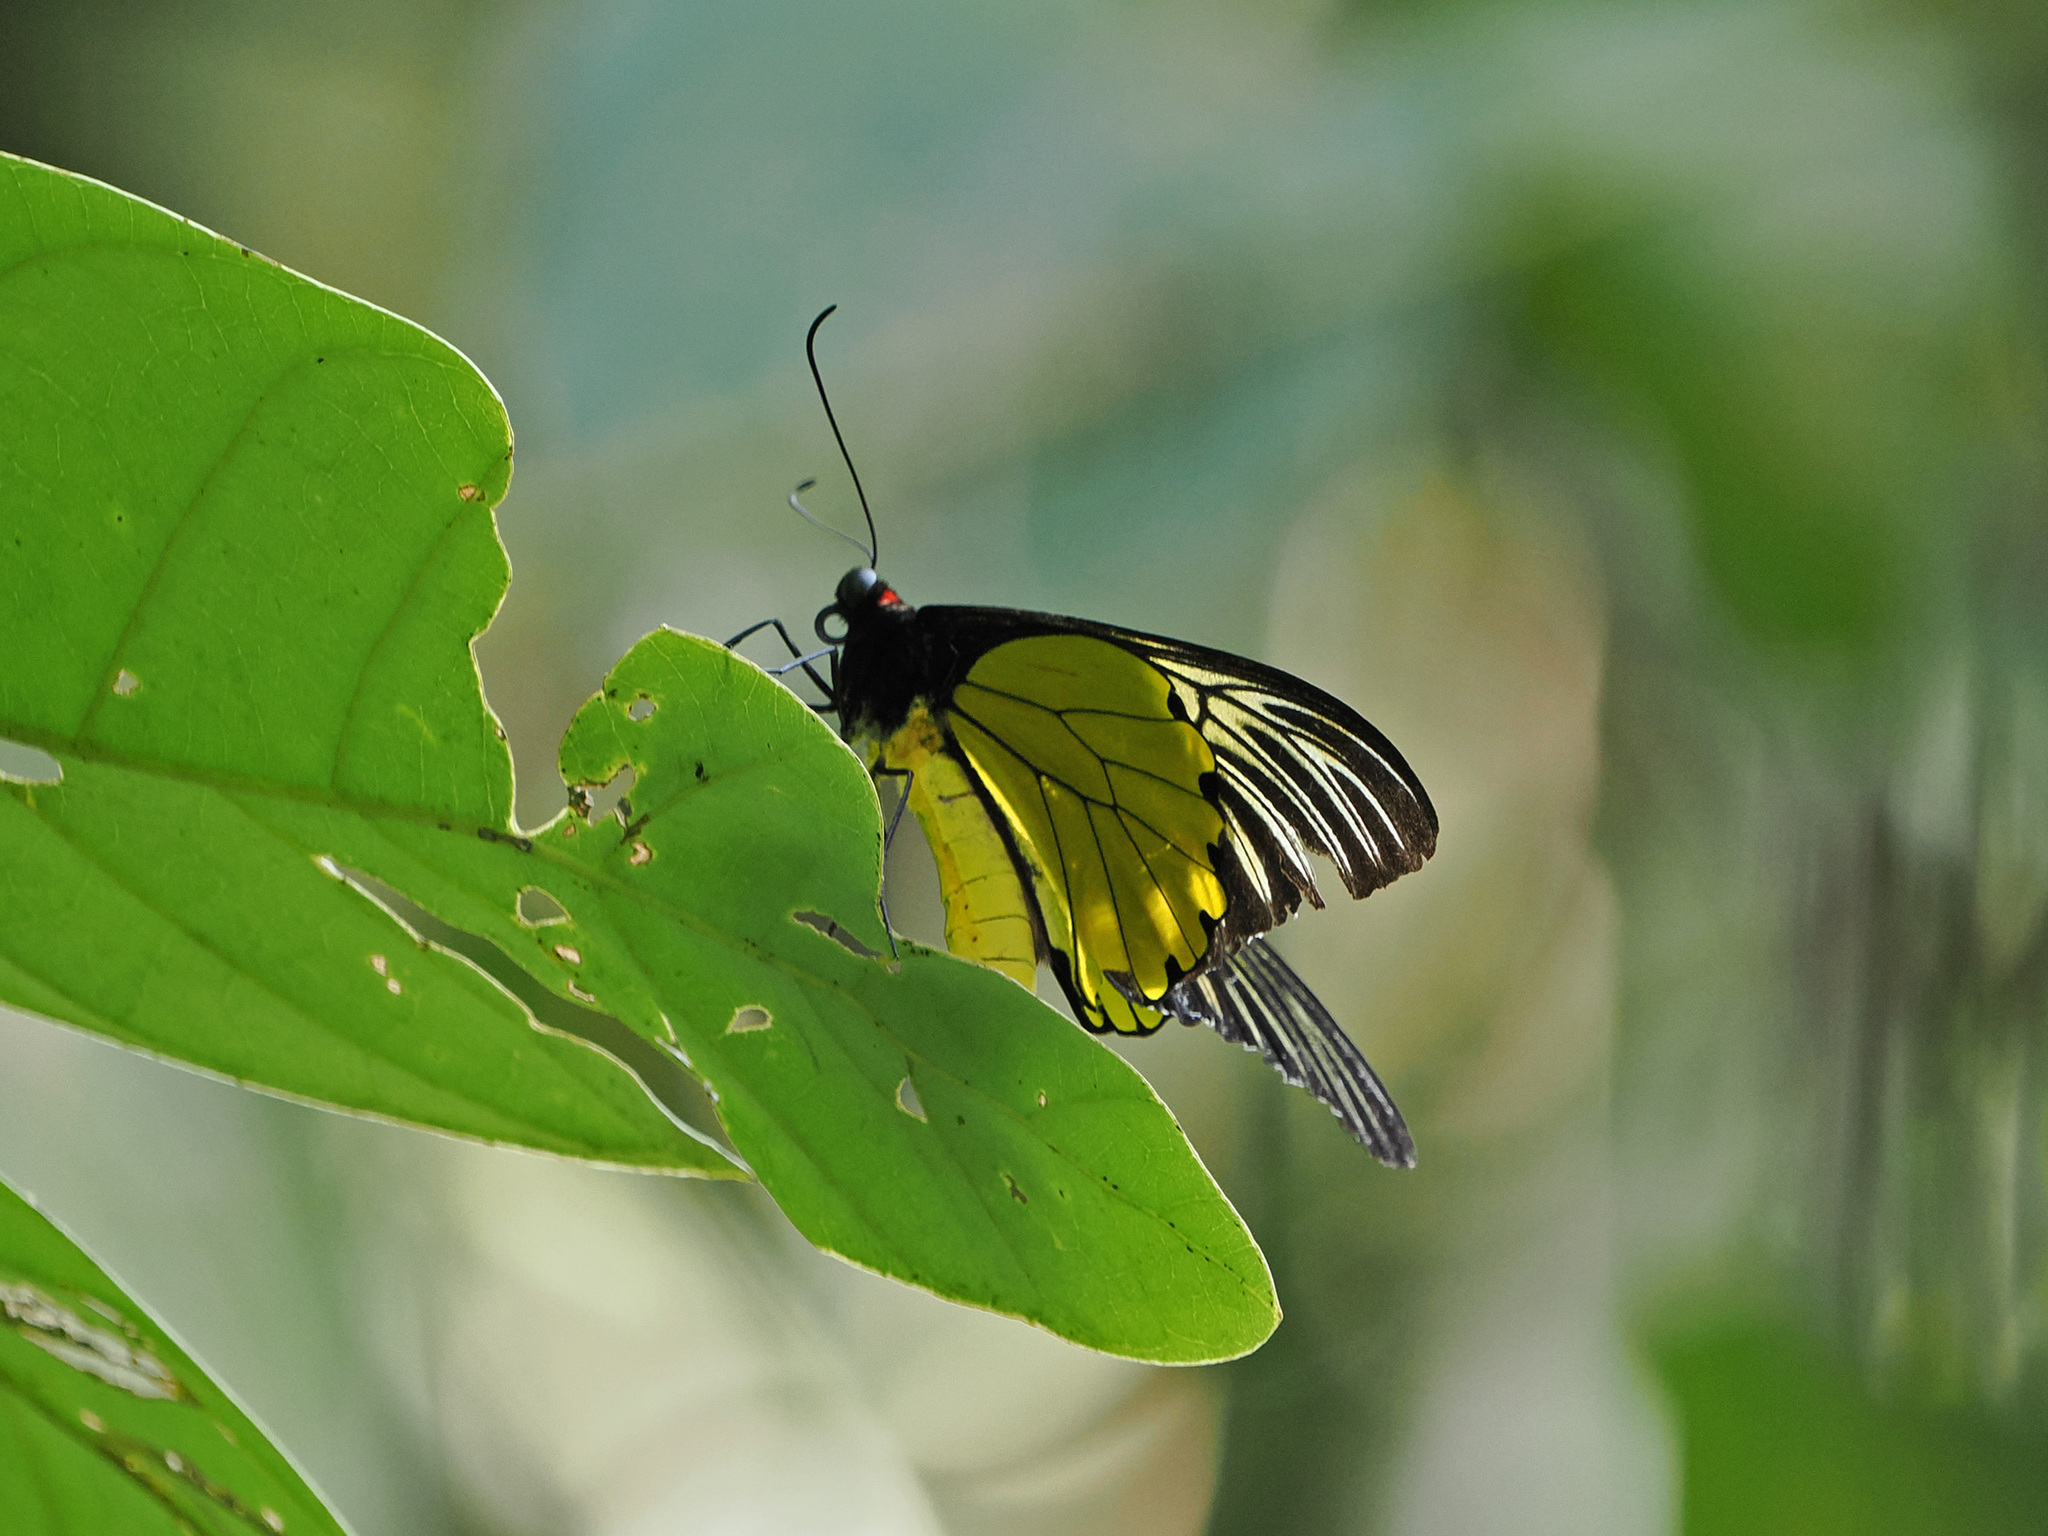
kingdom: Animalia
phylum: Arthropoda
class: Insecta
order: Lepidoptera
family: Papilionidae
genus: Troides
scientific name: Troides amphrysus
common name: Malay birdwing
